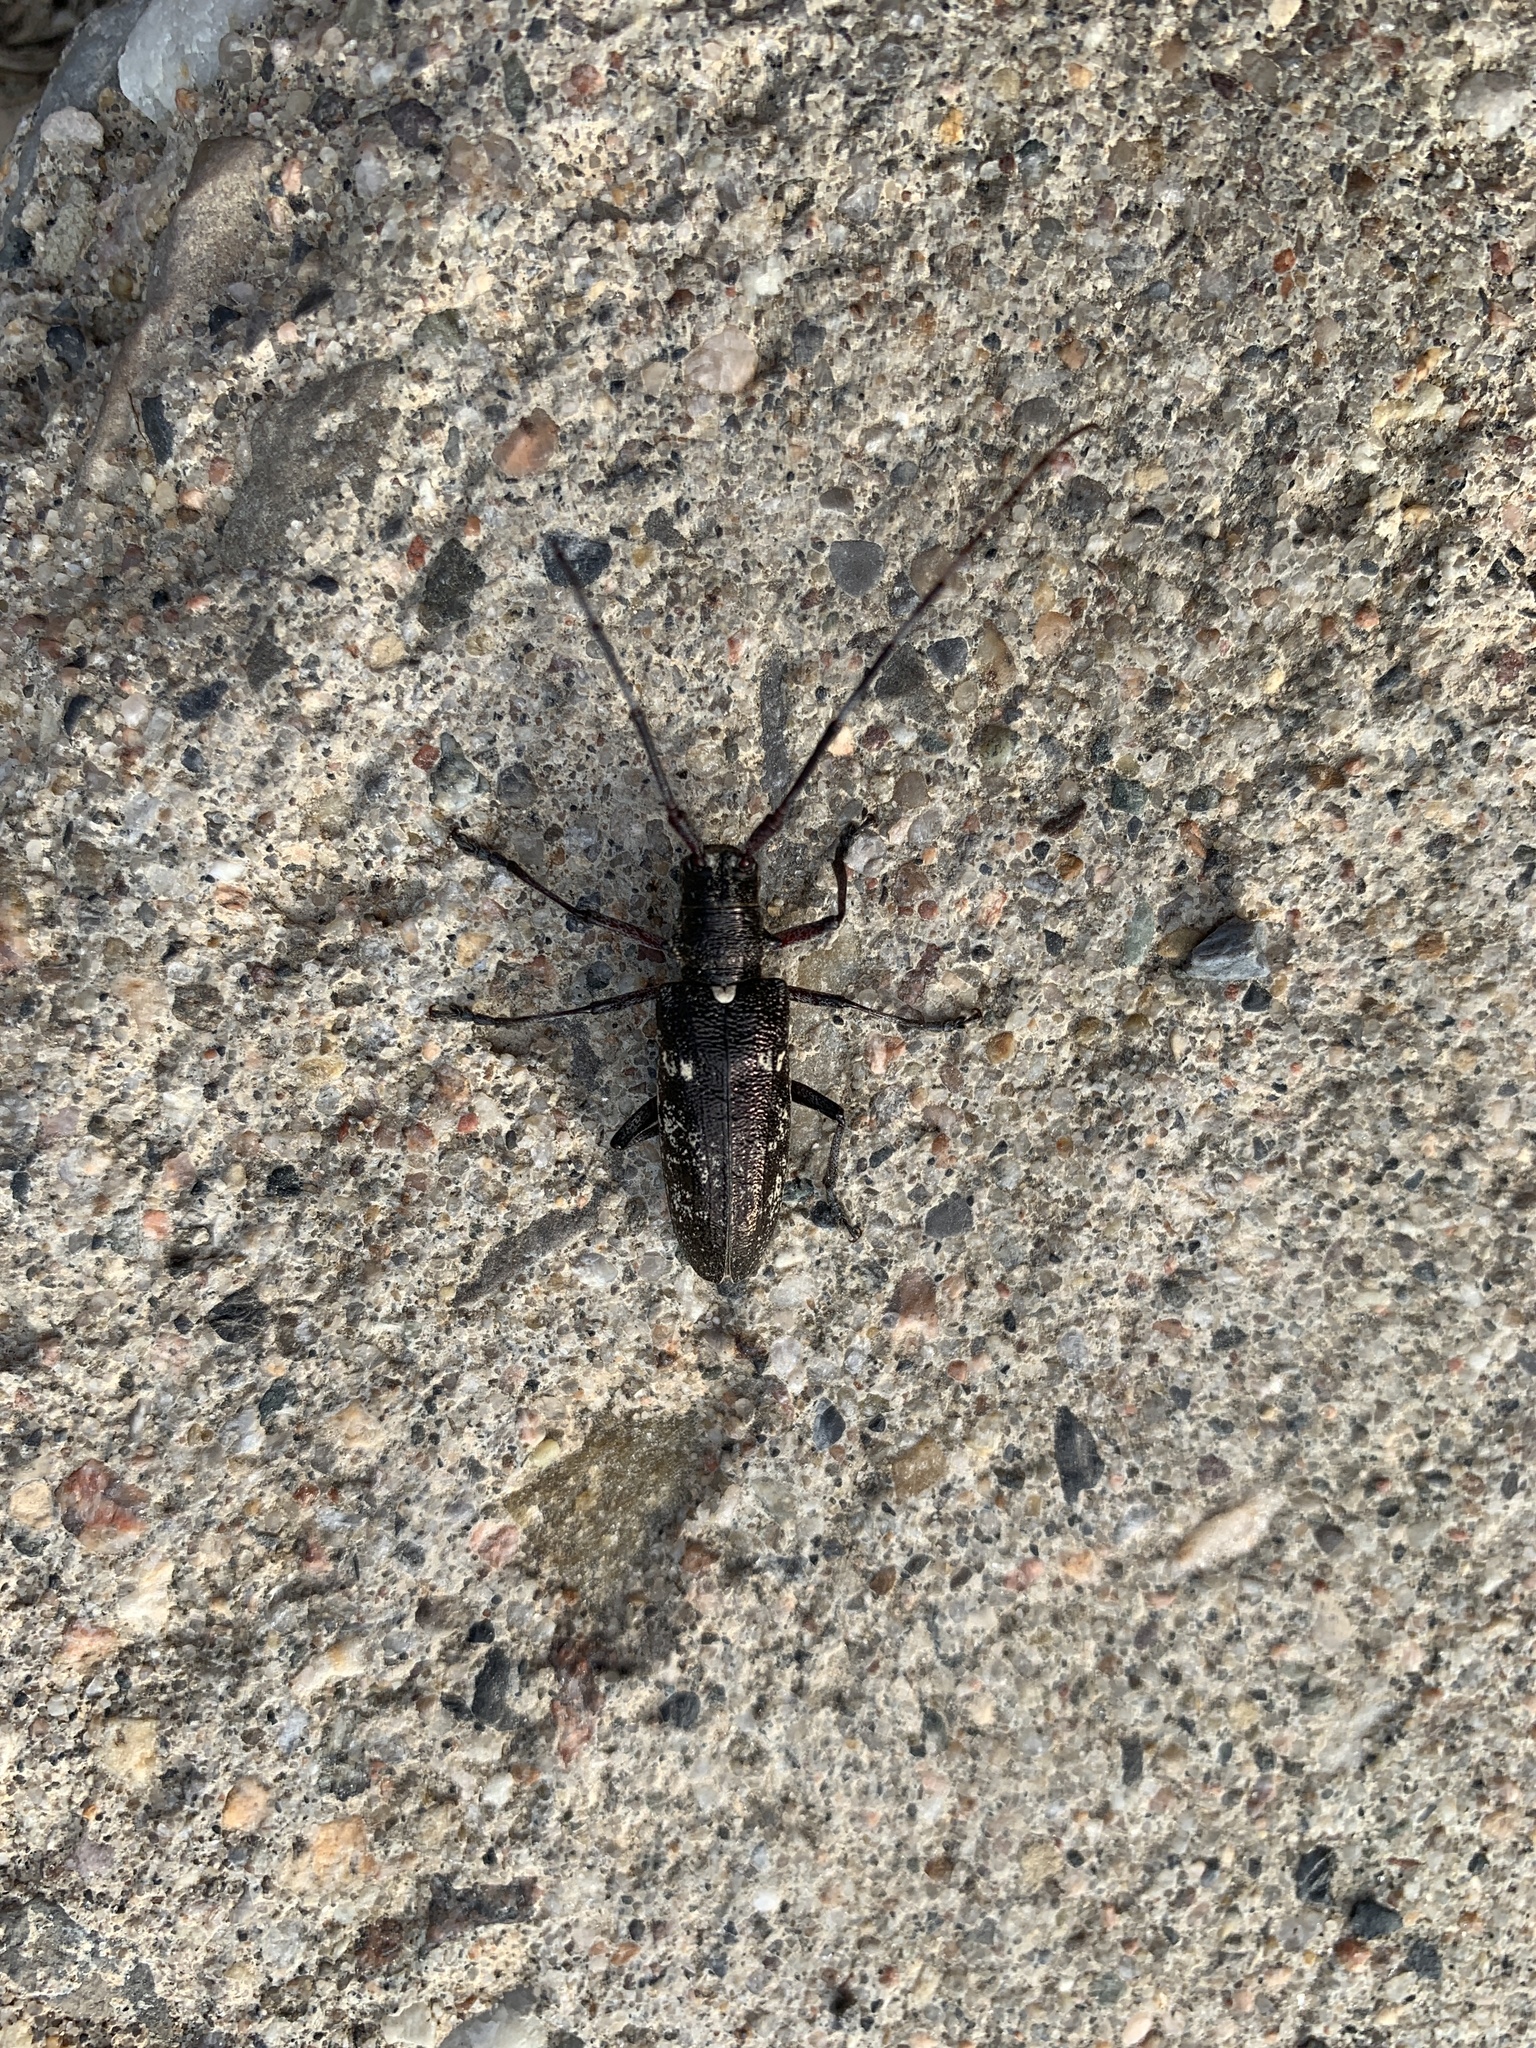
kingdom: Animalia
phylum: Arthropoda
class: Insecta
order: Coleoptera
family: Cerambycidae
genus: Monochamus
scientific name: Monochamus scutellatus
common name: White-spotted sawyer beetle
